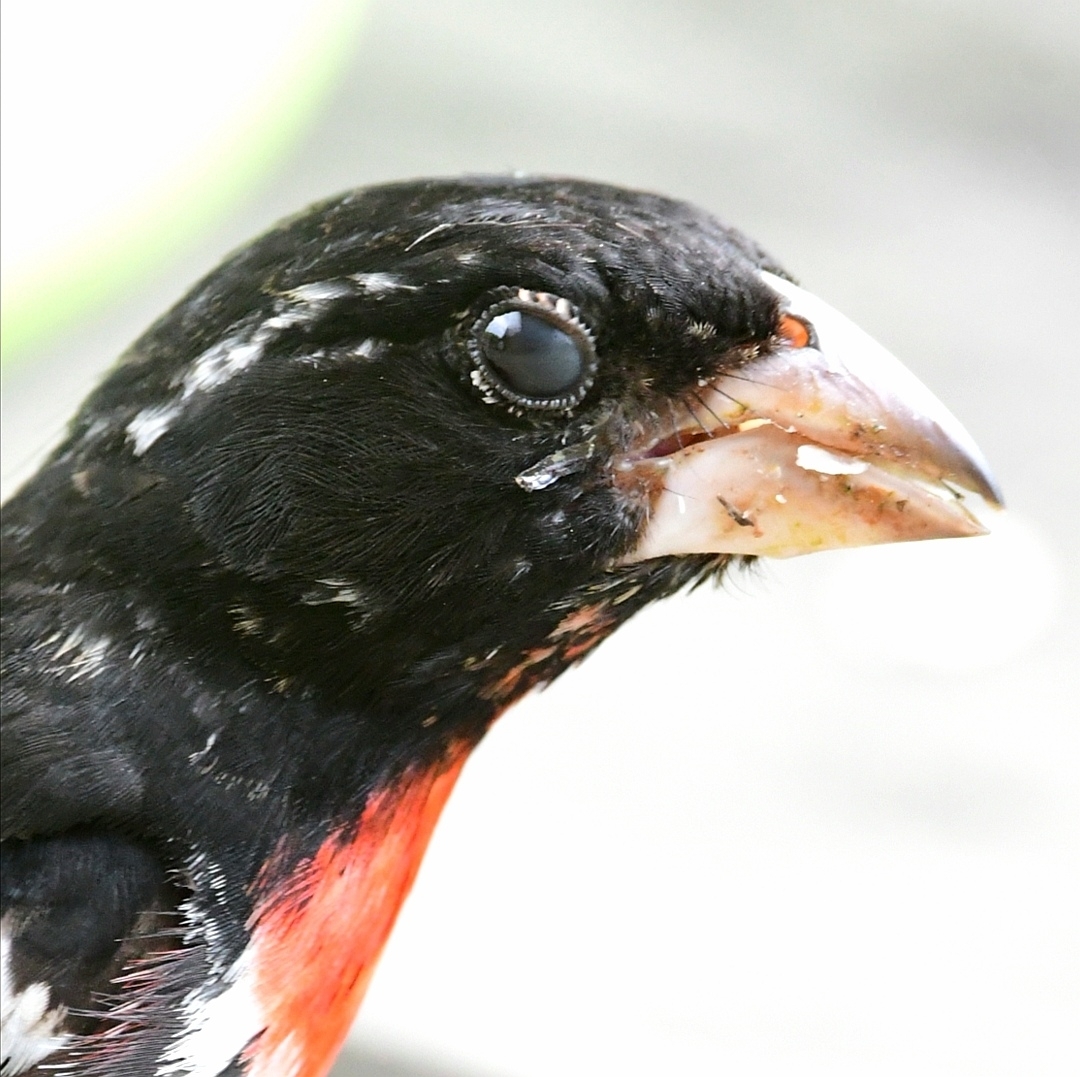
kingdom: Animalia
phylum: Chordata
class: Aves
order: Passeriformes
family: Cardinalidae
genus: Pheucticus
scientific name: Pheucticus ludovicianus
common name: Rose-breasted grosbeak
